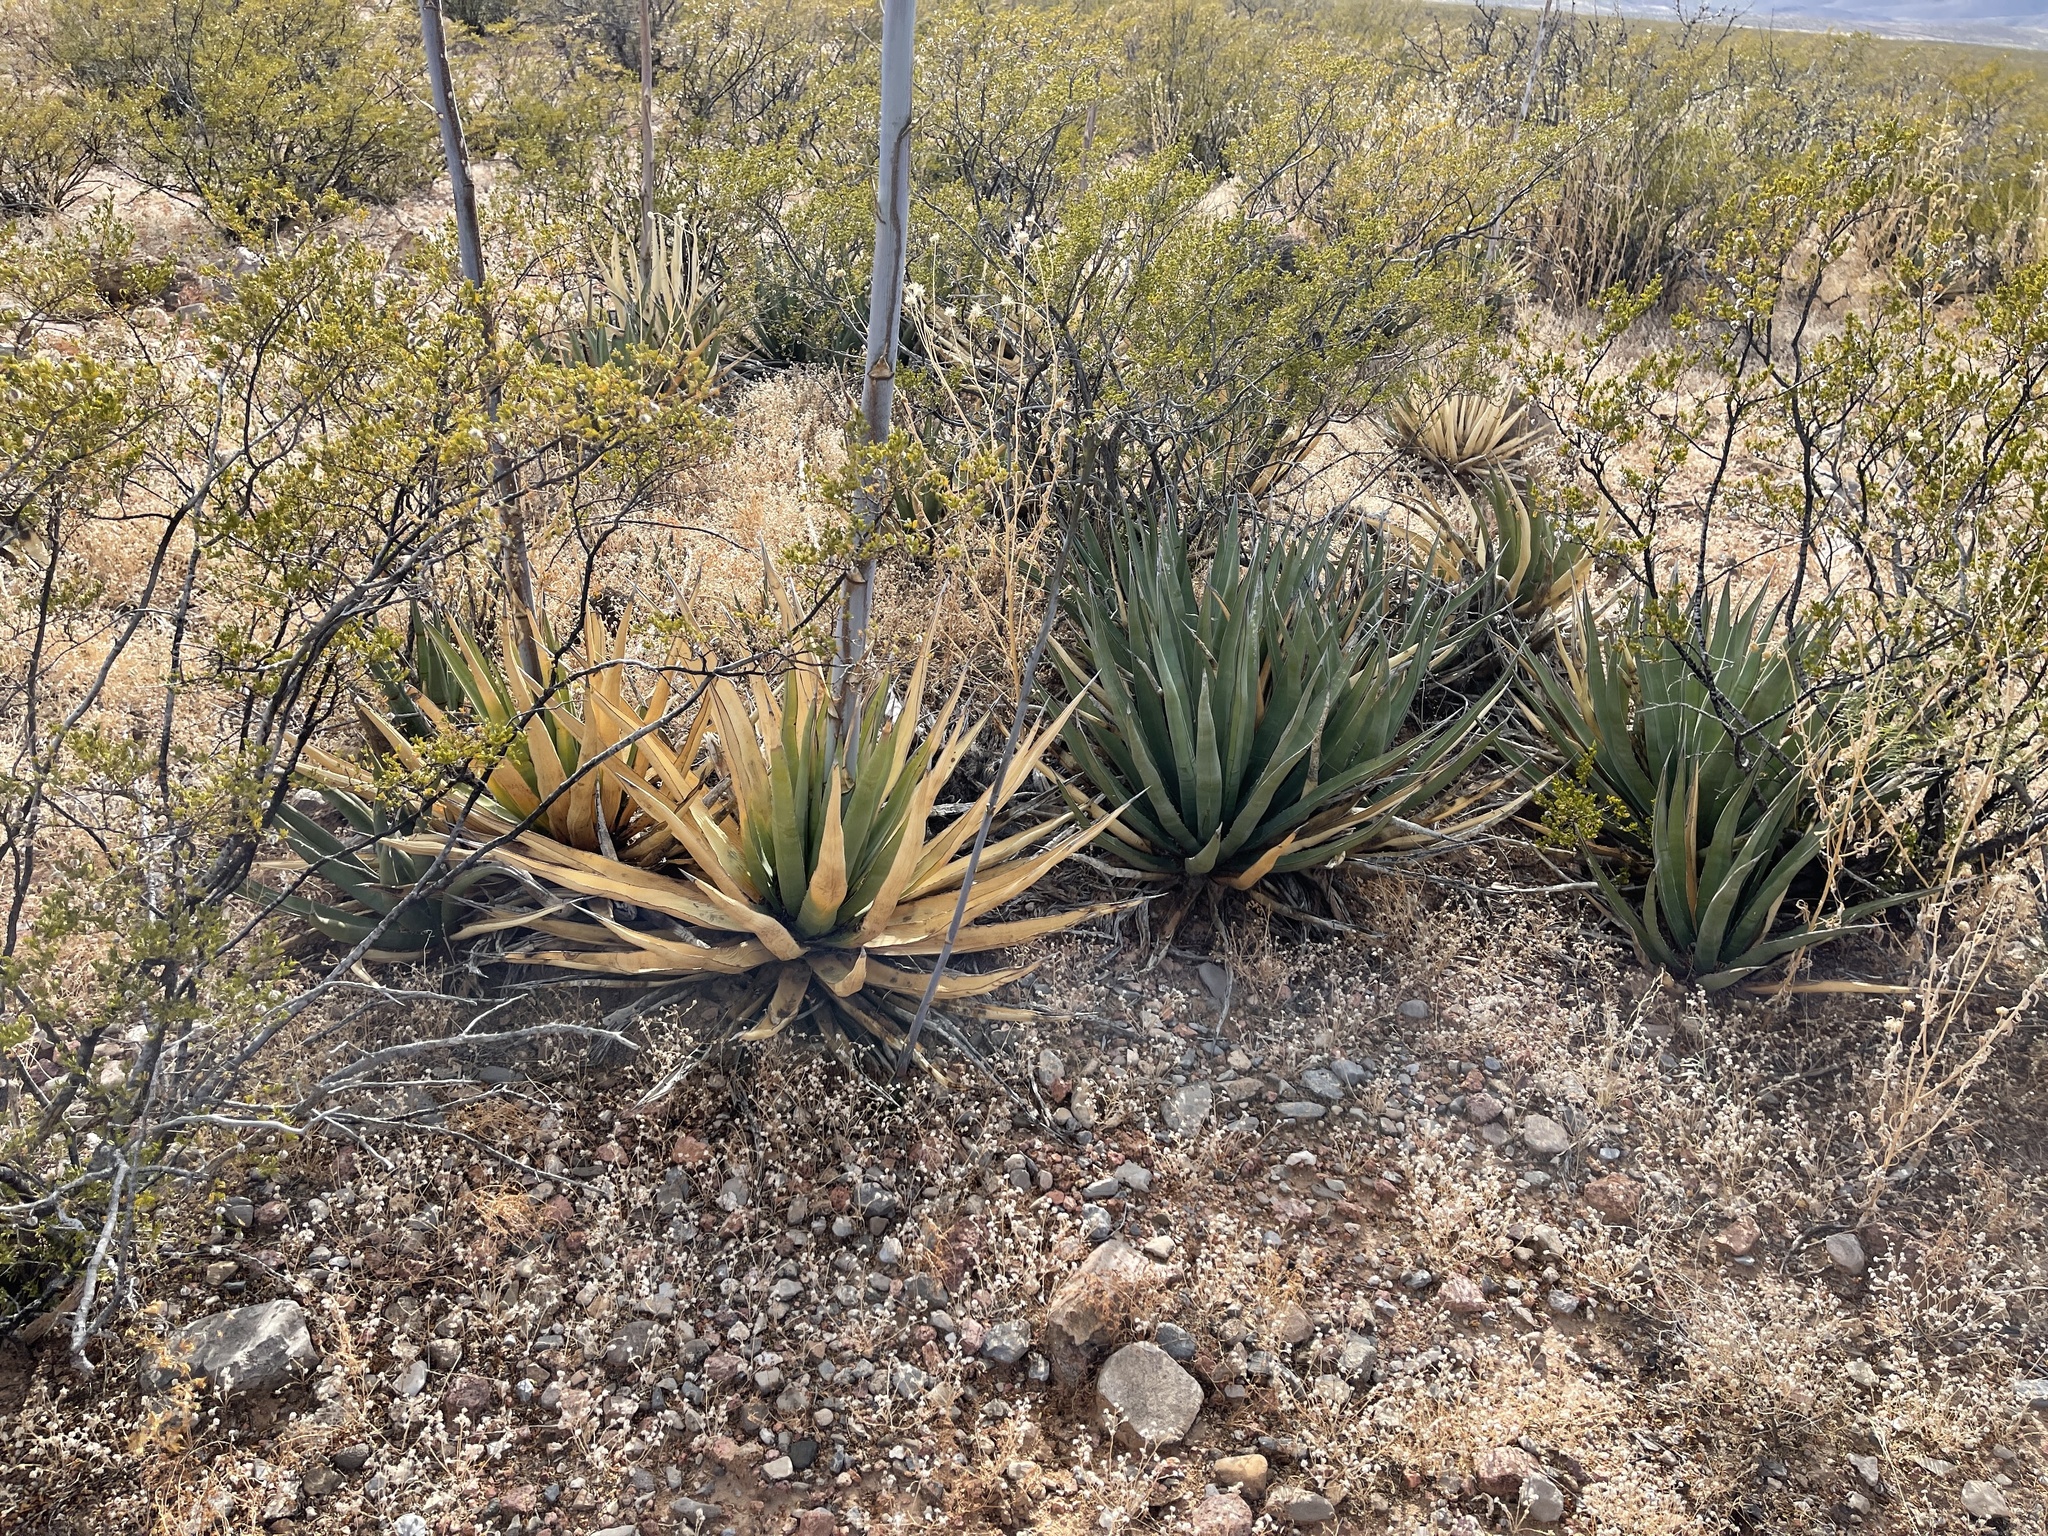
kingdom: Plantae
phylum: Tracheophyta
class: Liliopsida
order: Asparagales
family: Asparagaceae
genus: Agave
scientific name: Agave lechuguilla
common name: Lecheguilla agave
